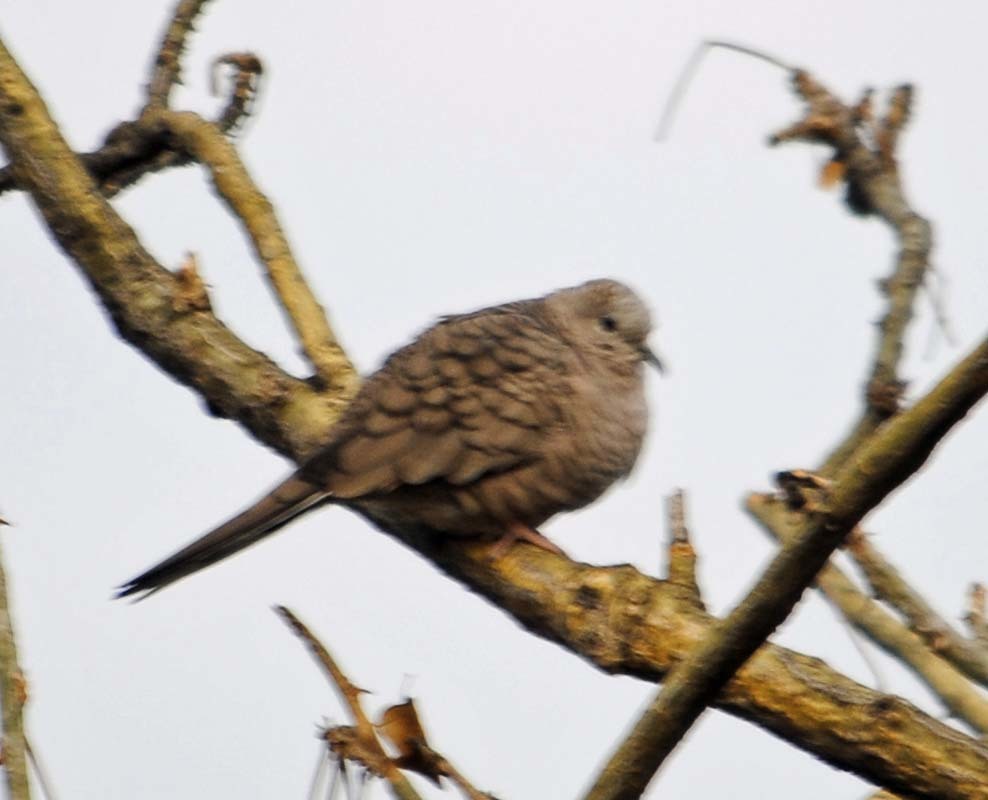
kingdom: Animalia
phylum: Chordata
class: Aves
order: Columbiformes
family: Columbidae
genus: Columbina
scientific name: Columbina inca
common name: Inca dove
